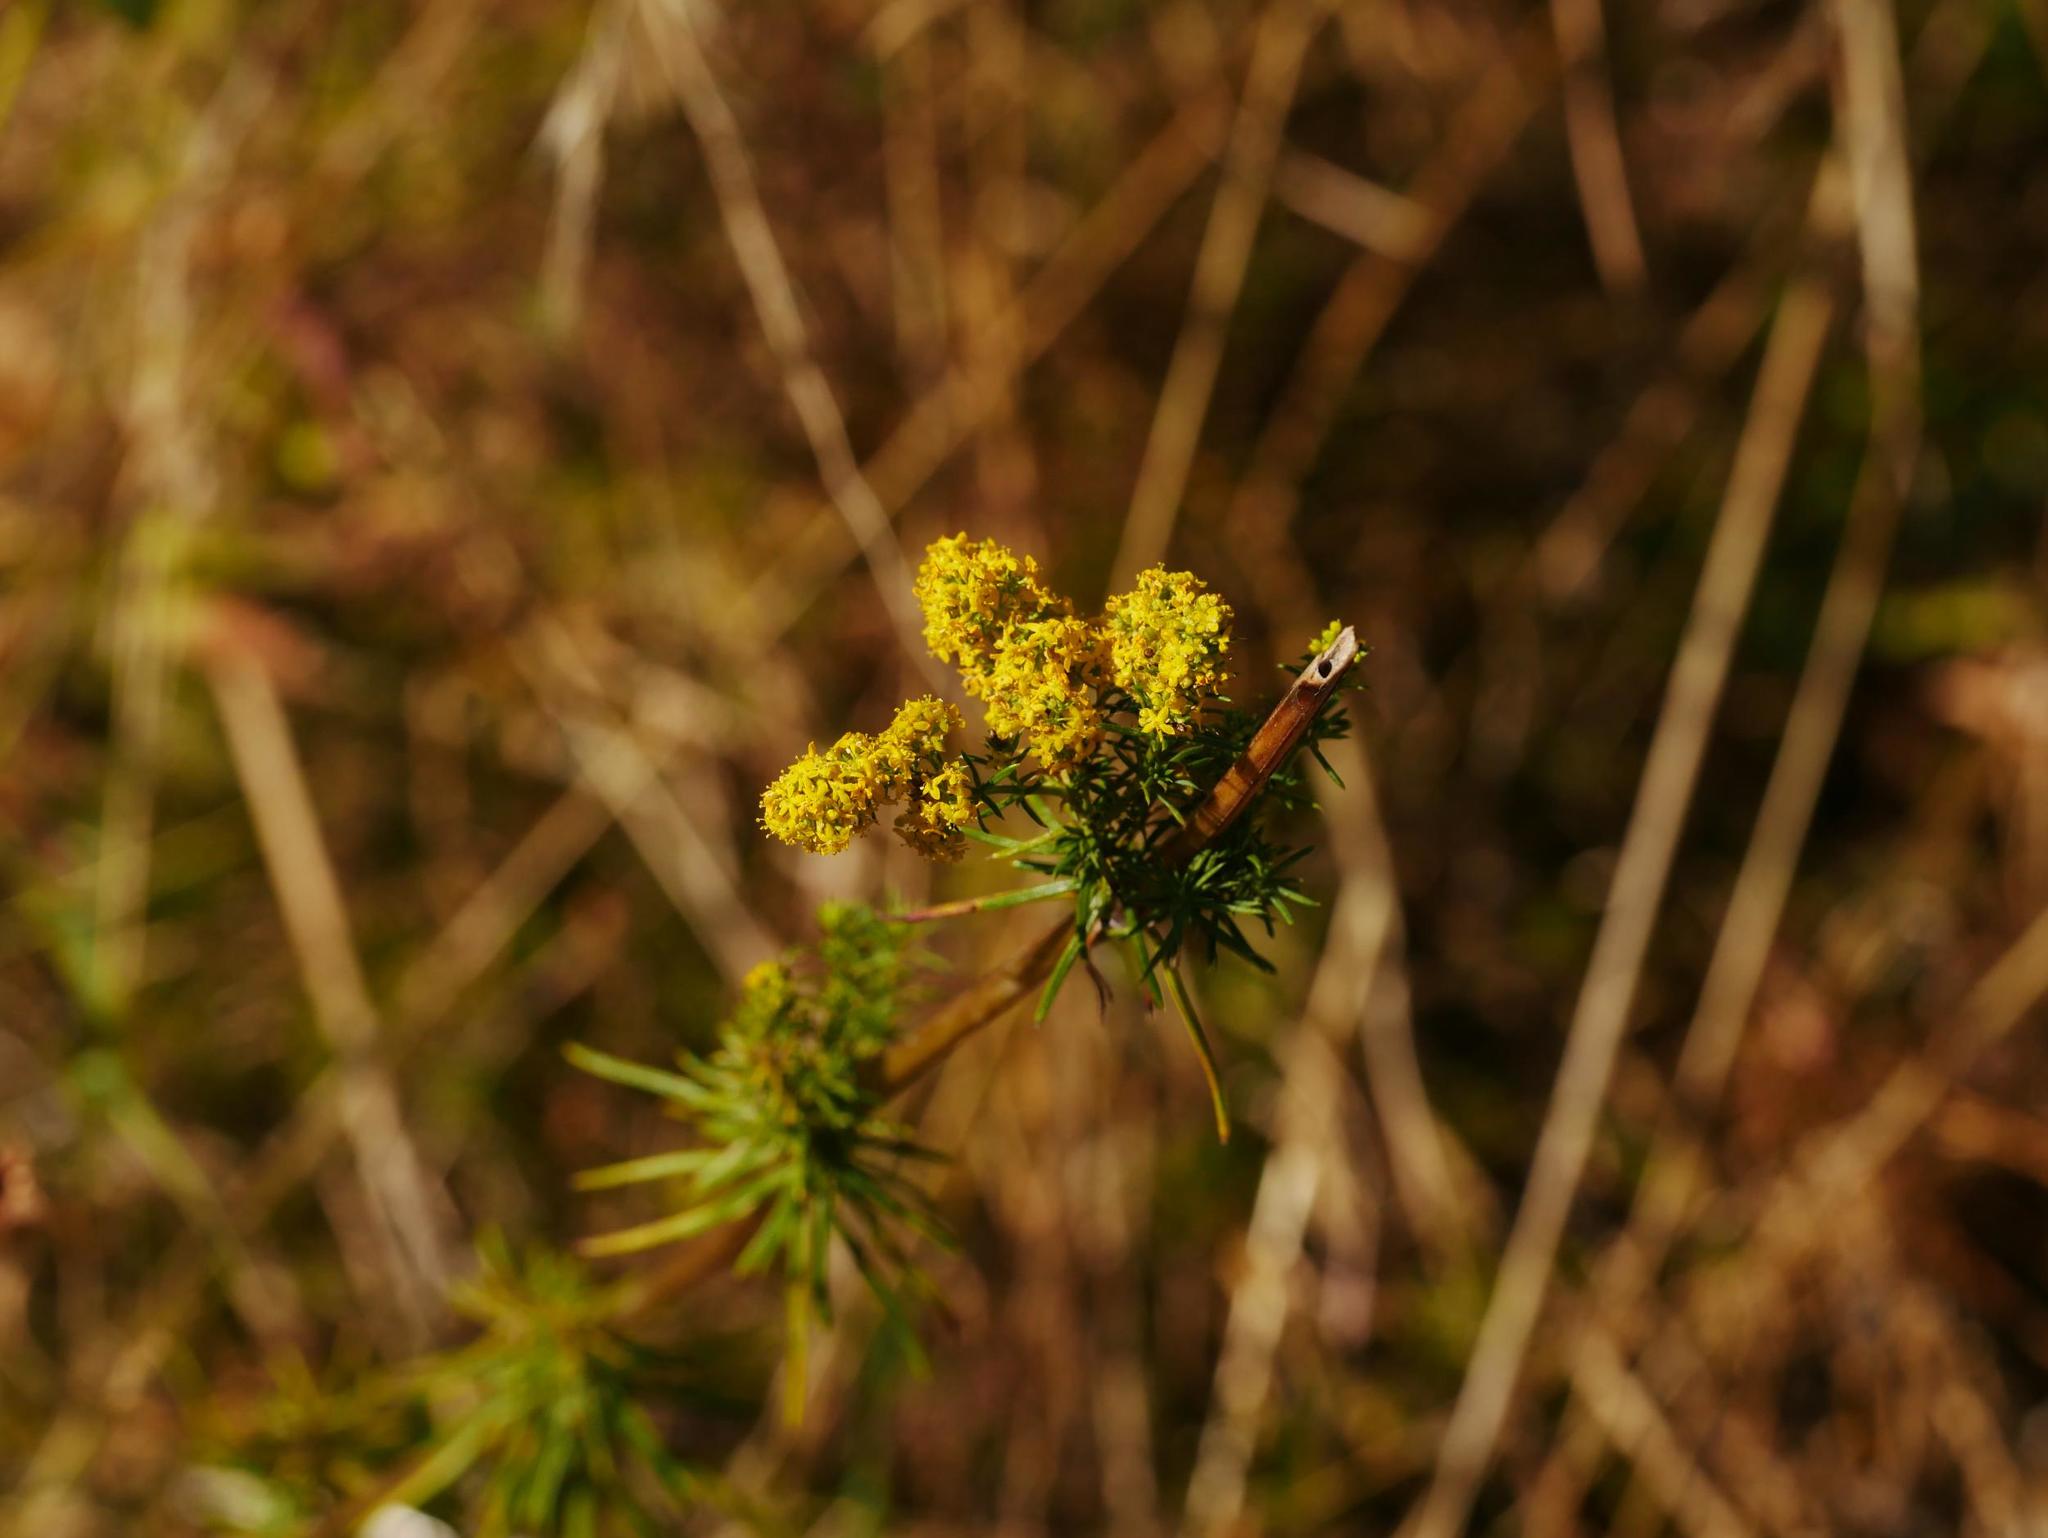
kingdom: Plantae
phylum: Tracheophyta
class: Magnoliopsida
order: Gentianales
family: Rubiaceae
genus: Galium
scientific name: Galium verum
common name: Lady's bedstraw
